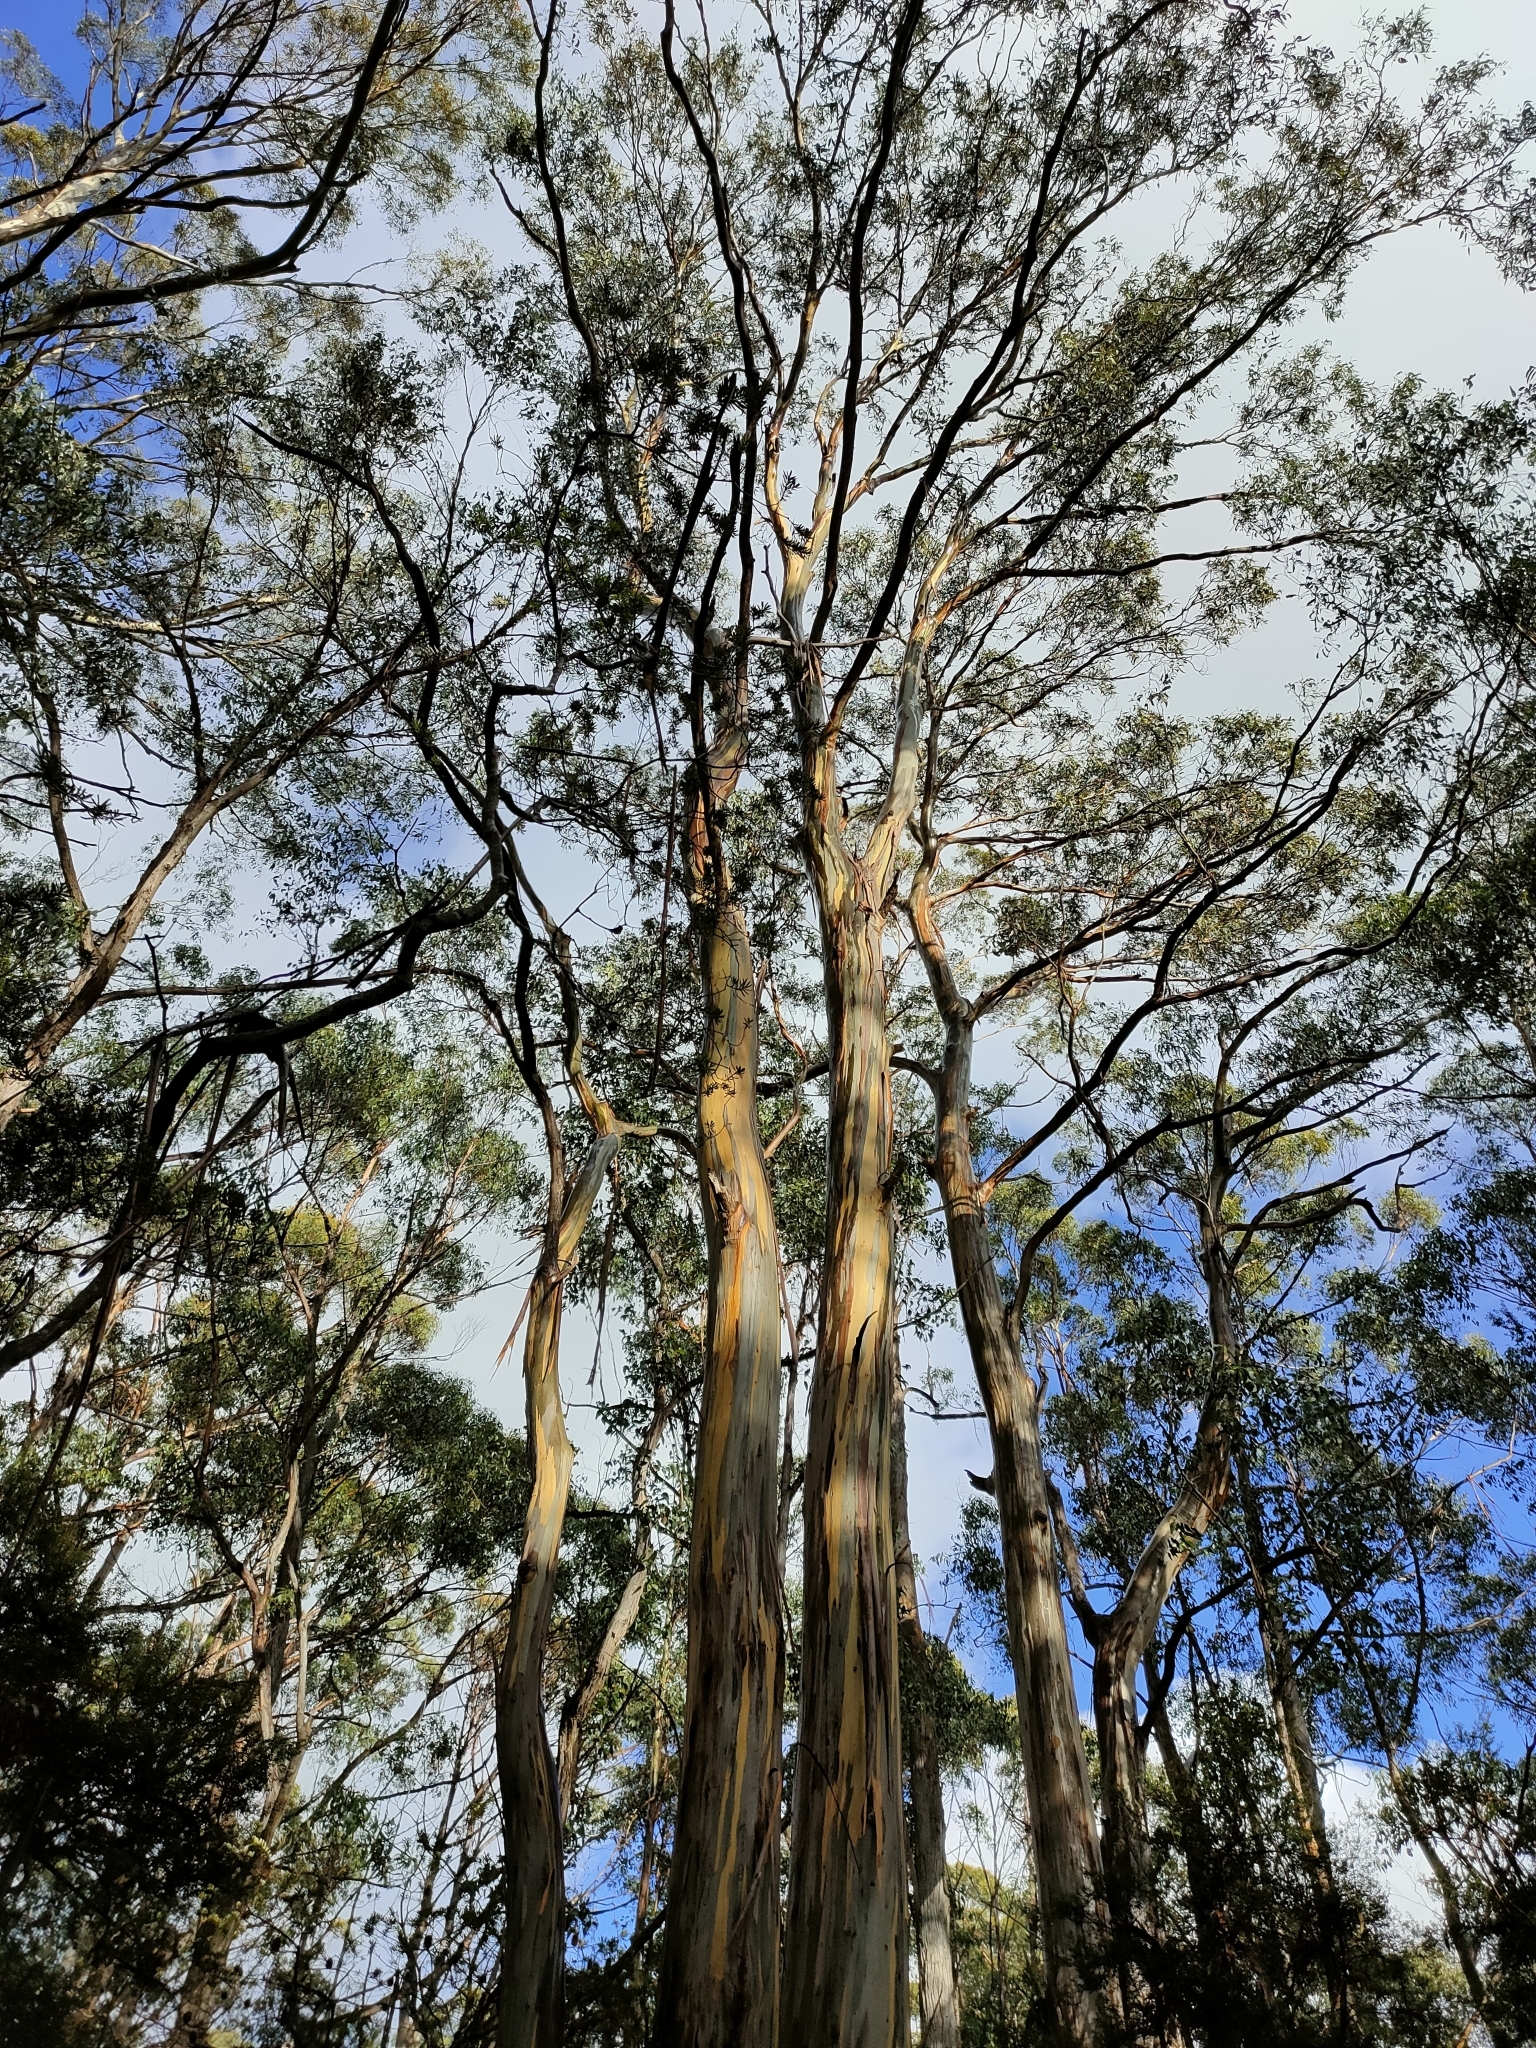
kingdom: Plantae
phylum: Tracheophyta
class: Magnoliopsida
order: Myrtales
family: Myrtaceae
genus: Eucalyptus
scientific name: Eucalyptus globulus
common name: Southern blue-gum
